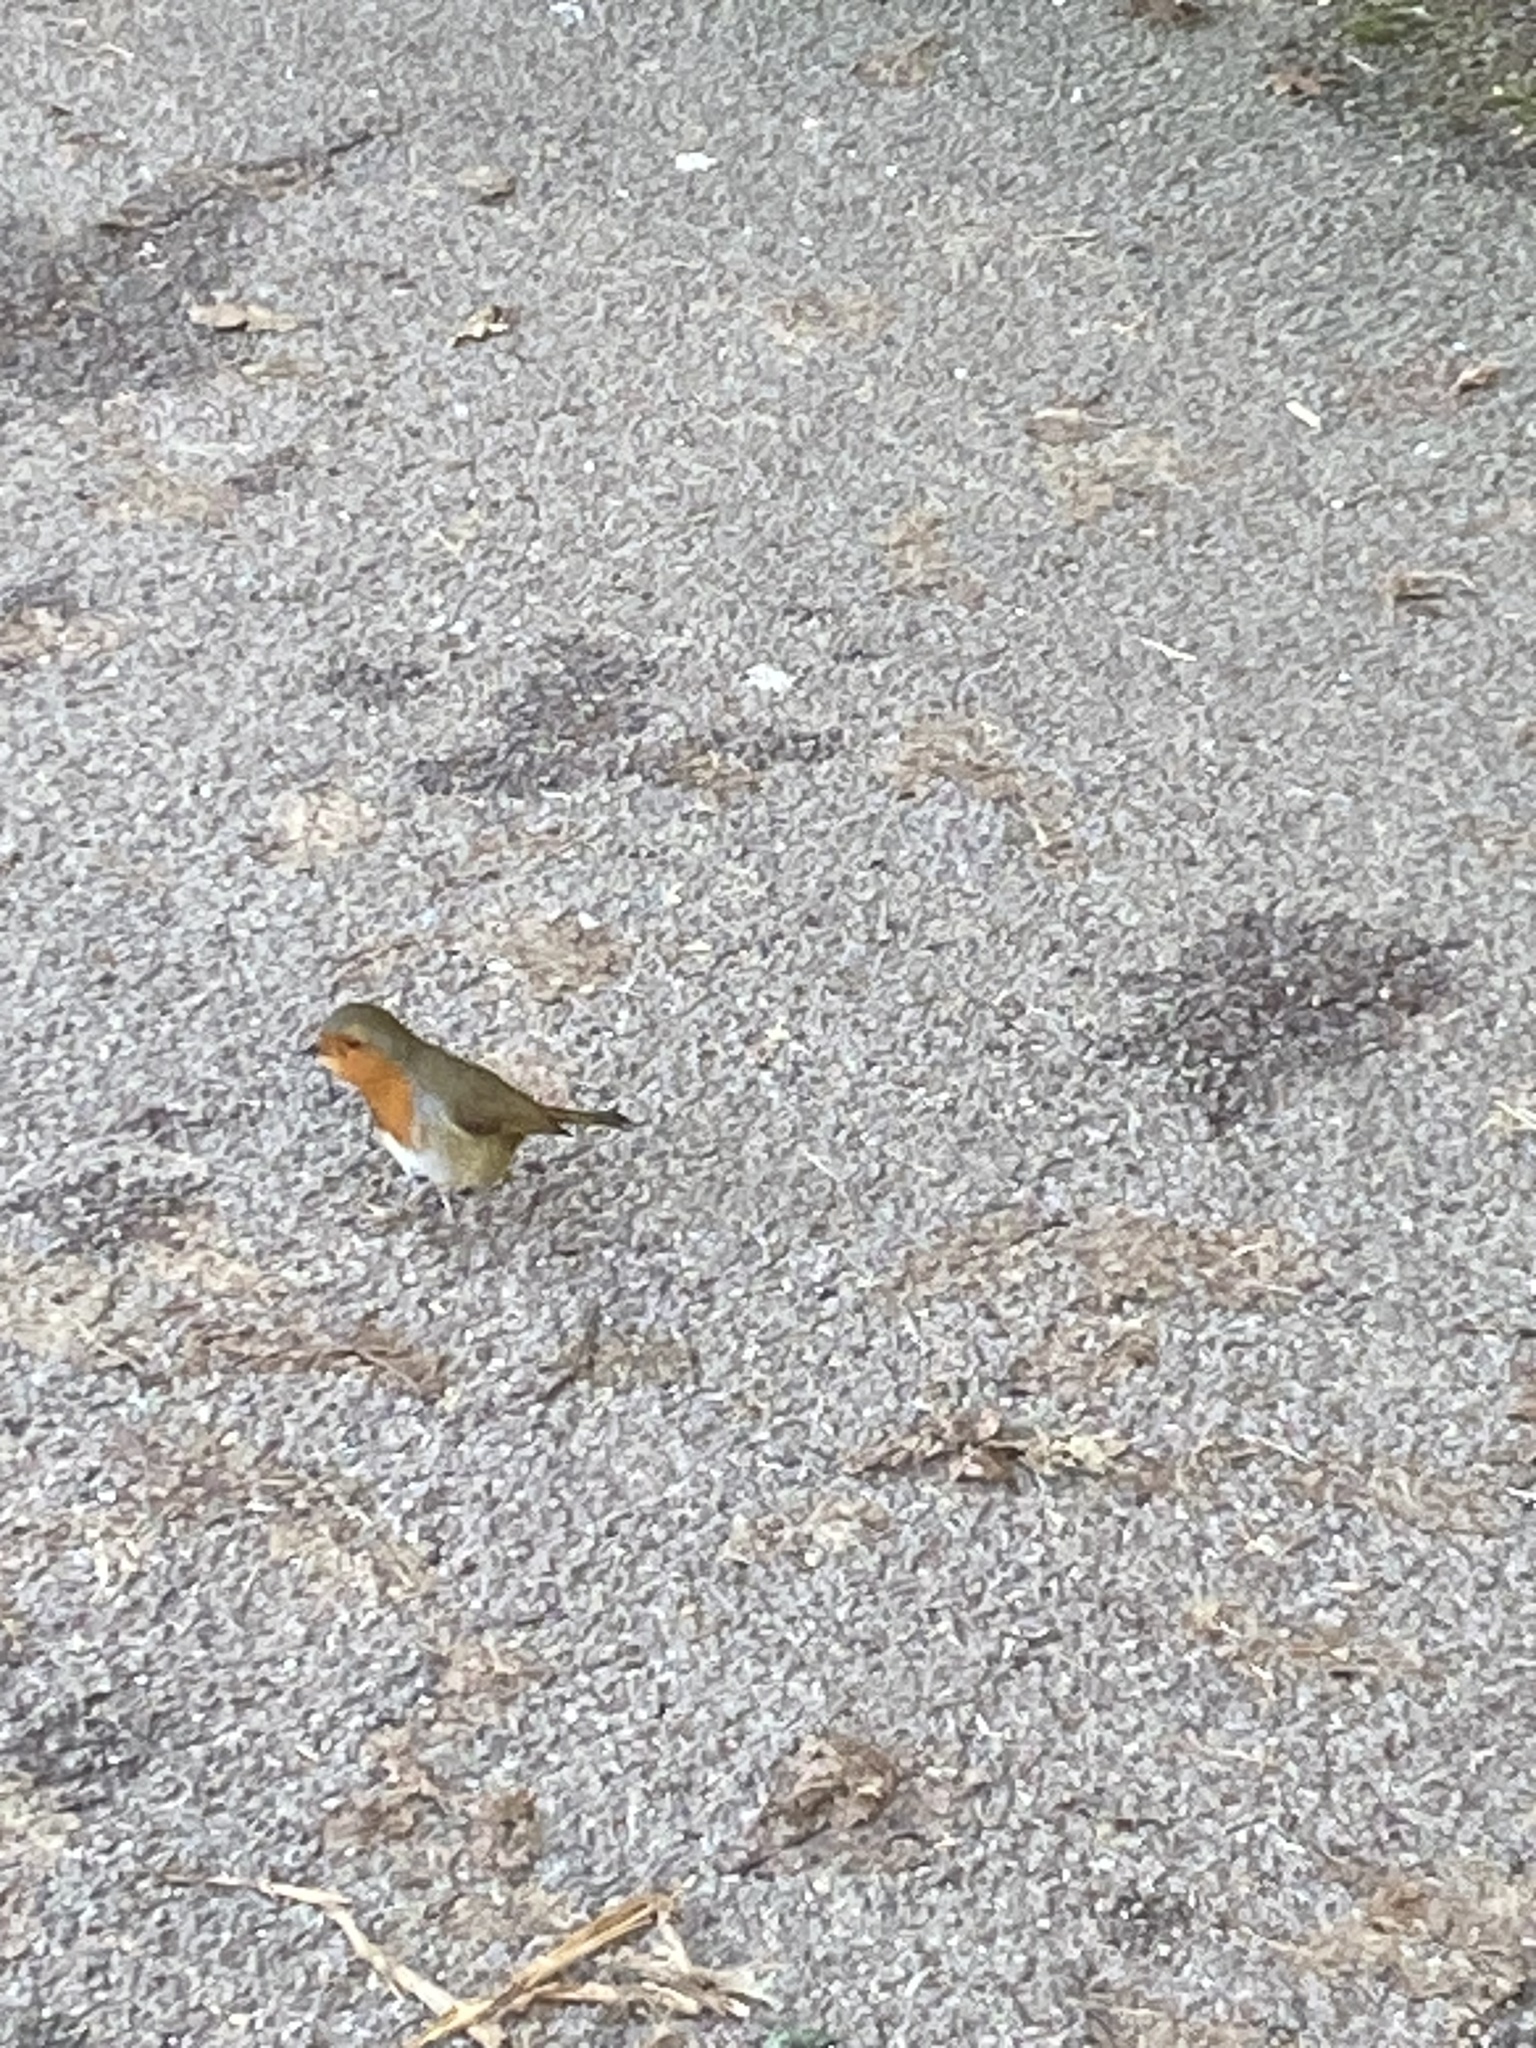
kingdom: Animalia
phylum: Chordata
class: Aves
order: Passeriformes
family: Muscicapidae
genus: Erithacus
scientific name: Erithacus rubecula
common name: European robin
